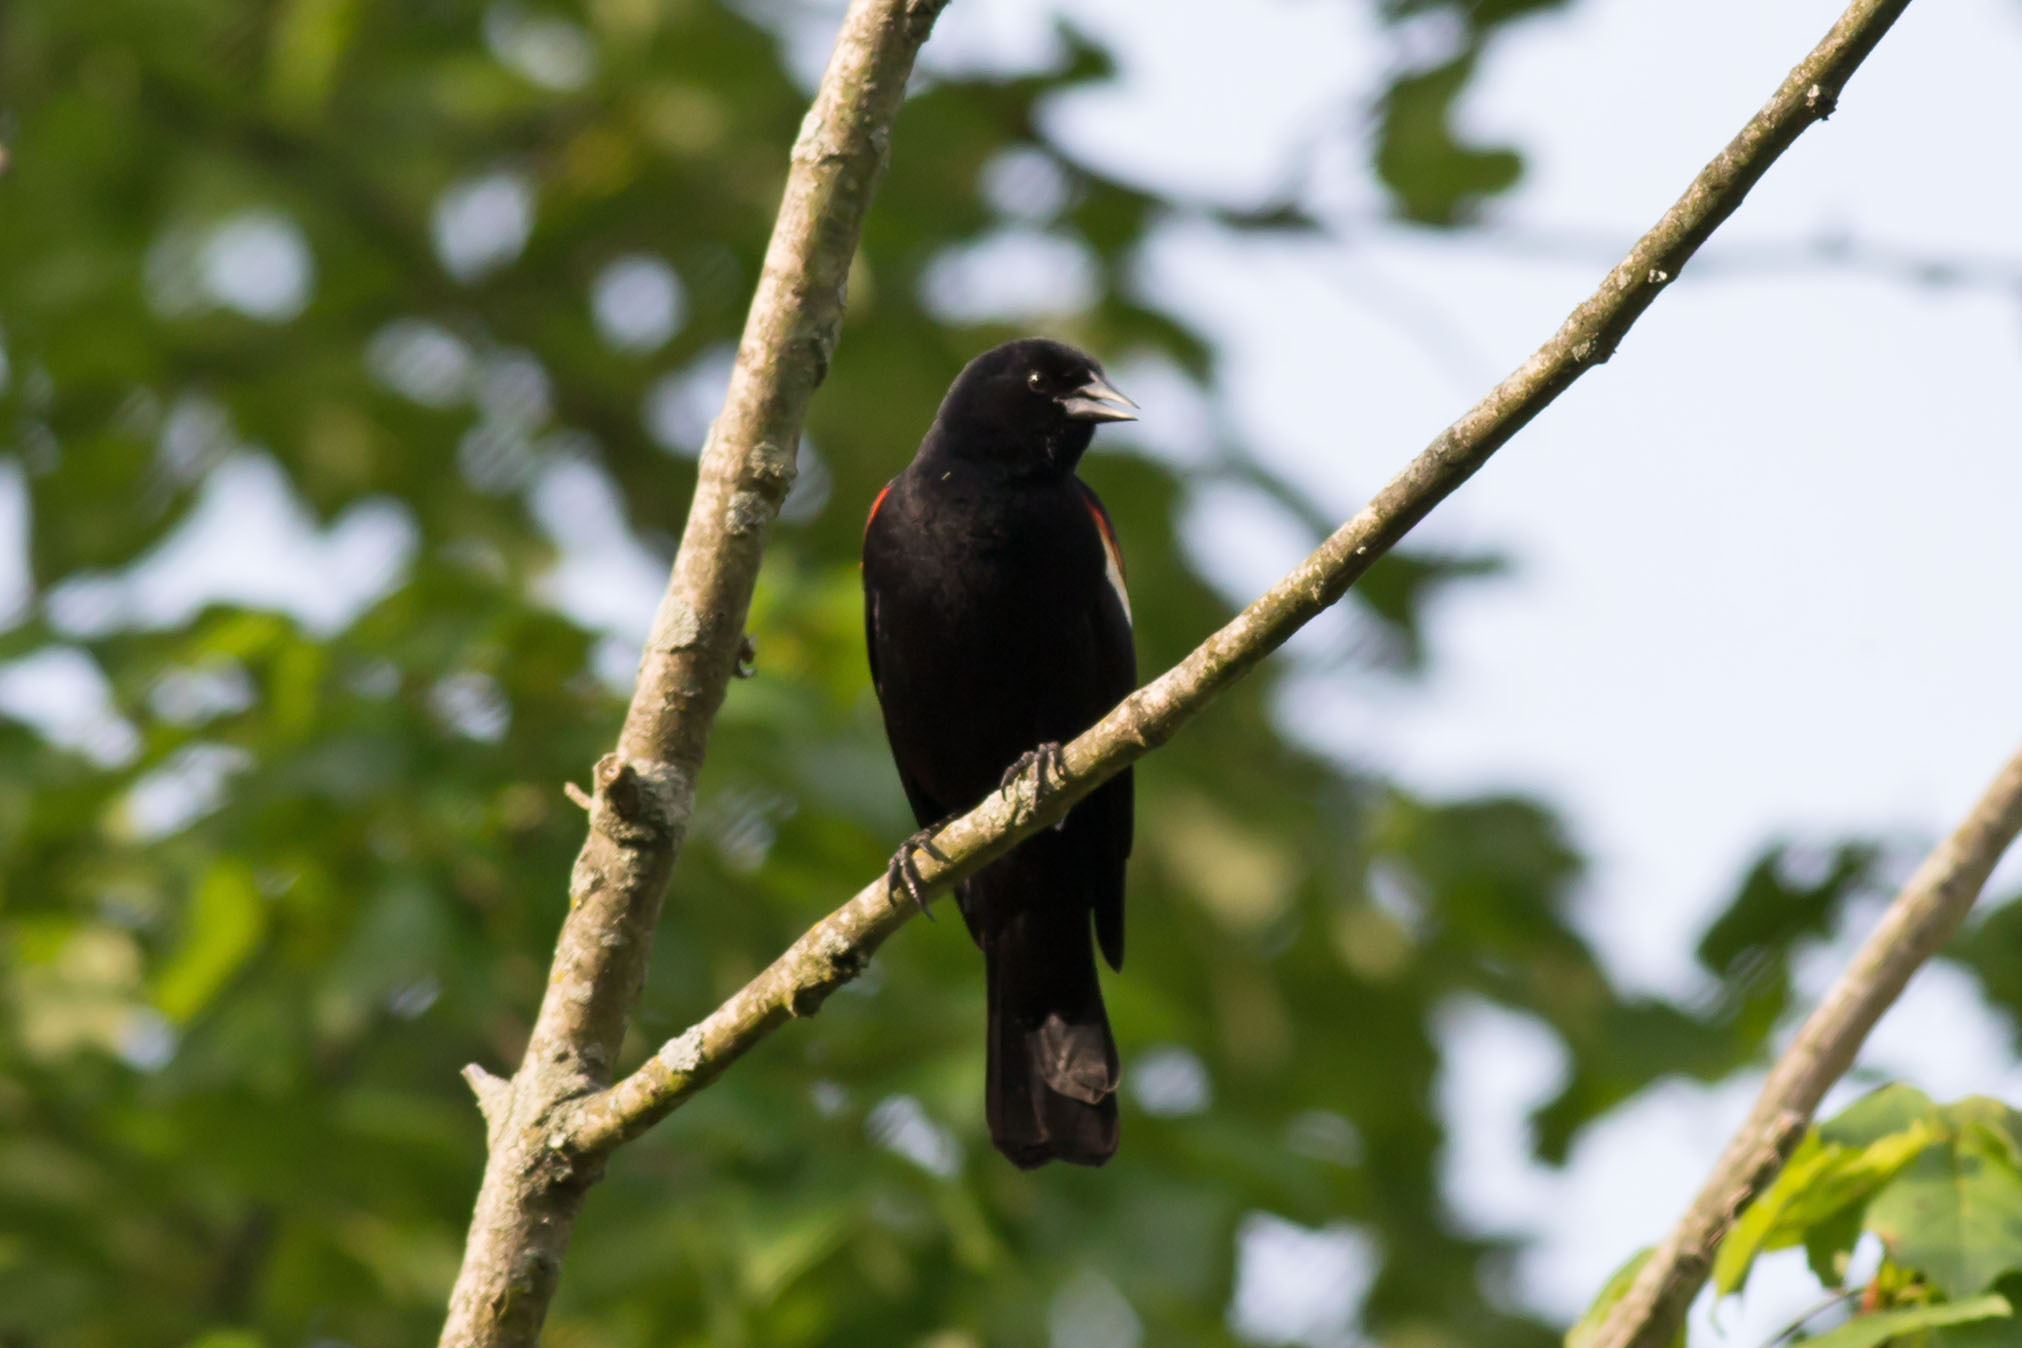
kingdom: Animalia
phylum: Chordata
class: Aves
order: Passeriformes
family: Icteridae
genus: Agelaius
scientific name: Agelaius phoeniceus
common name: Red-winged blackbird
